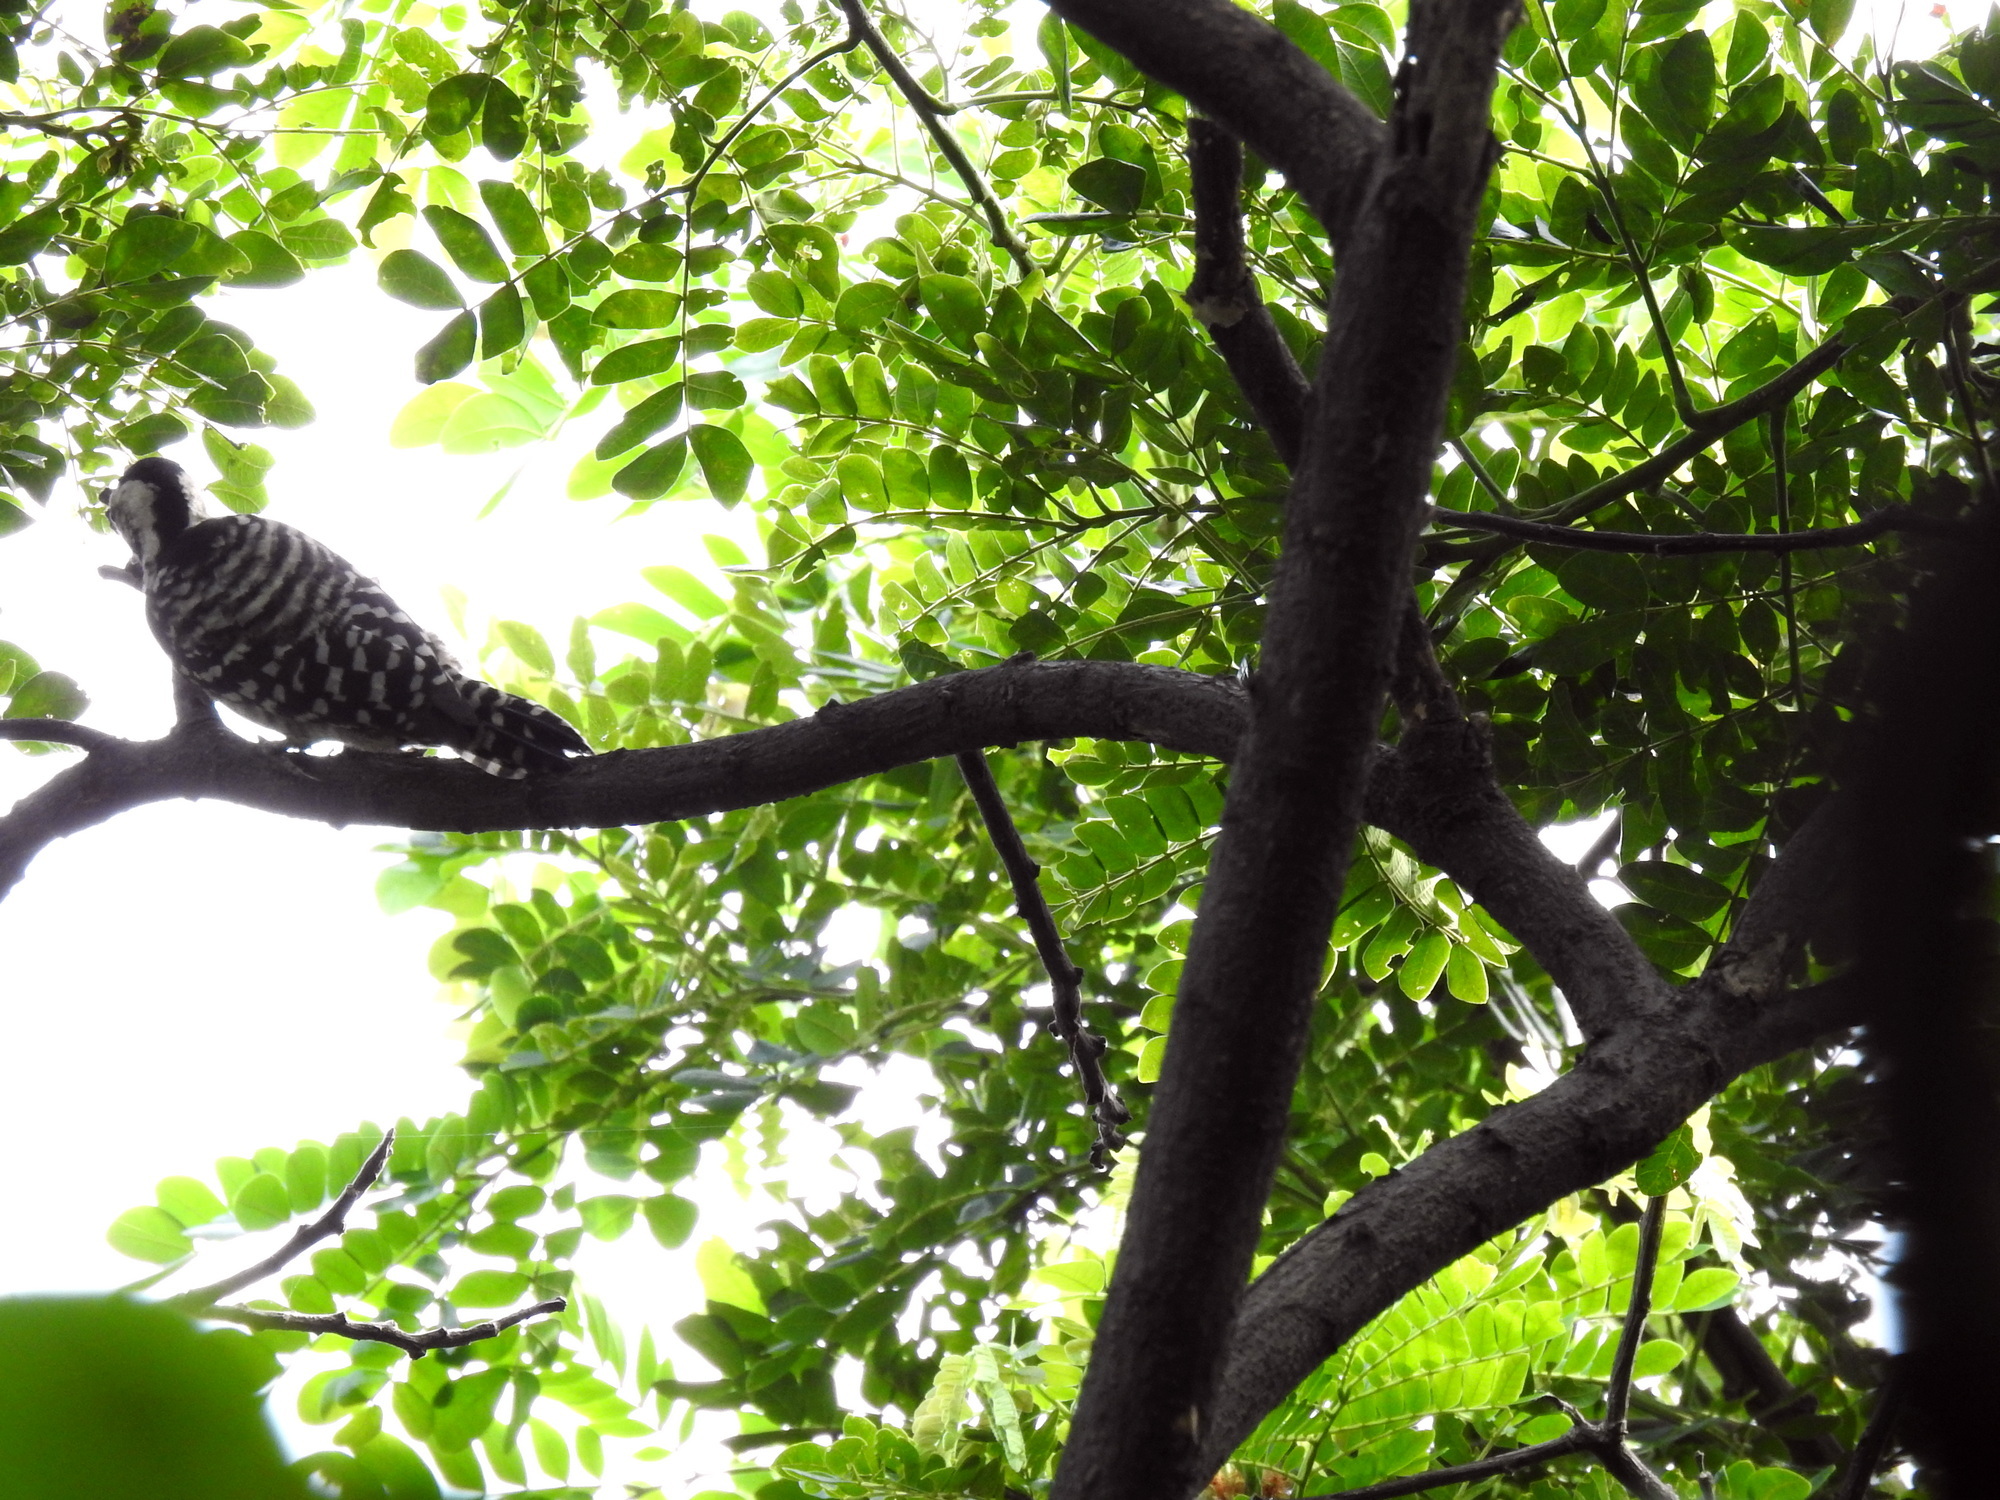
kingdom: Animalia
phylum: Chordata
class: Aves
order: Piciformes
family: Picidae
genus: Dendrocopos
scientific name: Dendrocopos analis
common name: Freckle-breasted woodpecker
